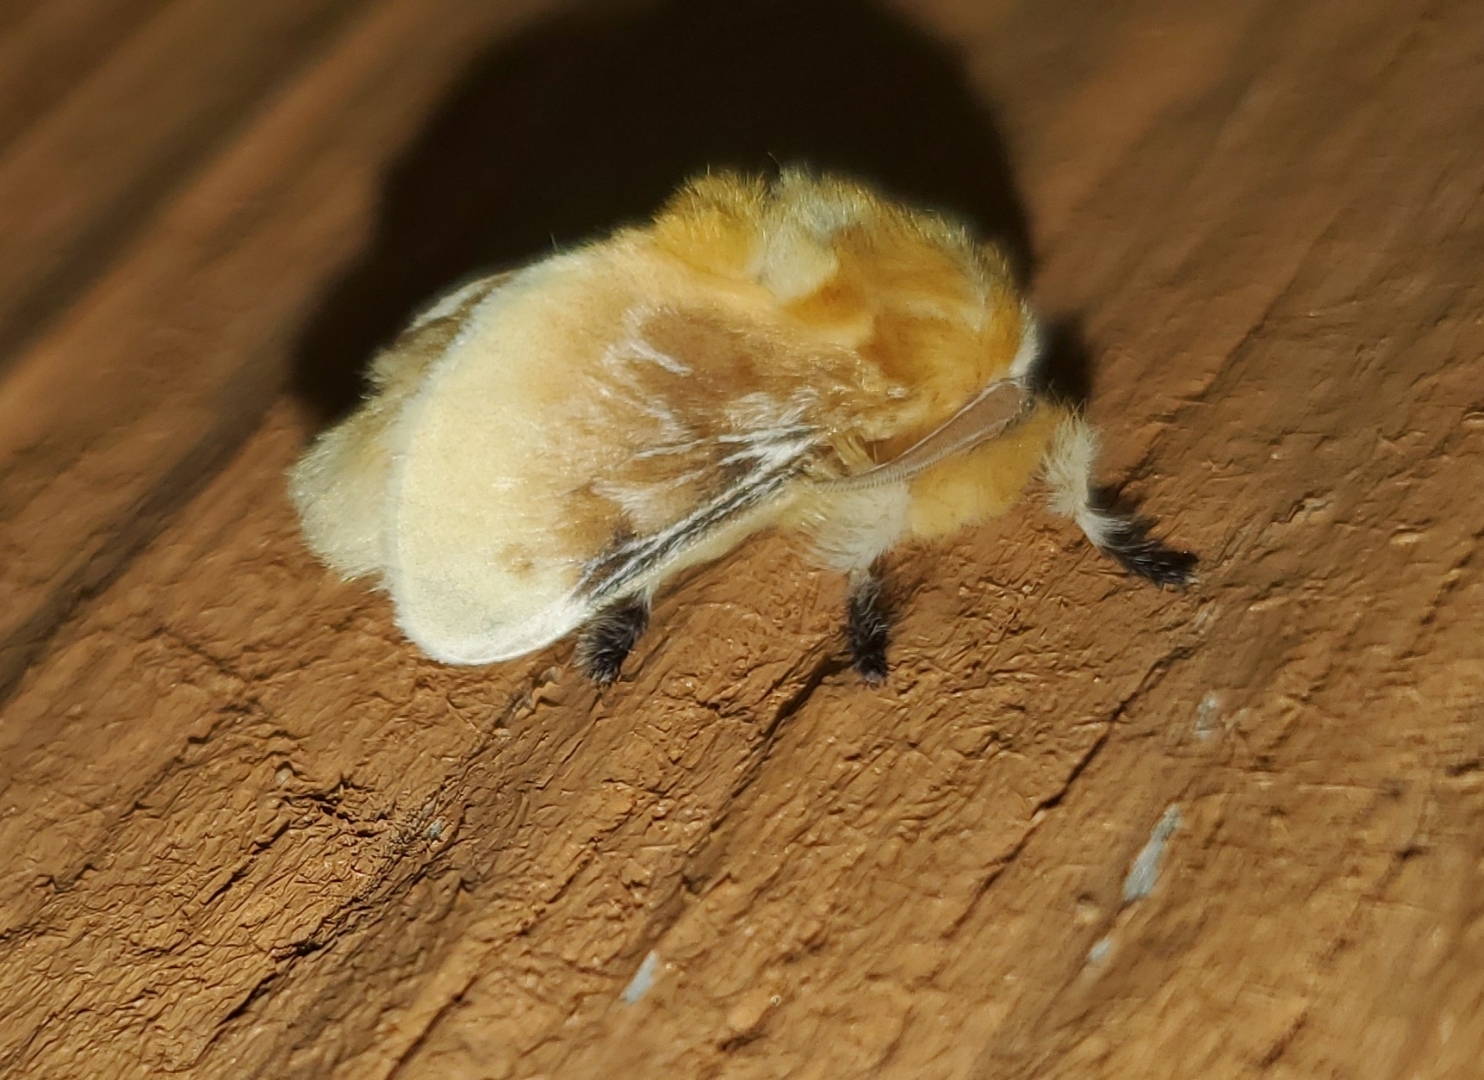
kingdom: Animalia
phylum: Arthropoda
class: Insecta
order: Lepidoptera
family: Megalopygidae
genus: Megalopyge
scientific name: Megalopyge opercularis
